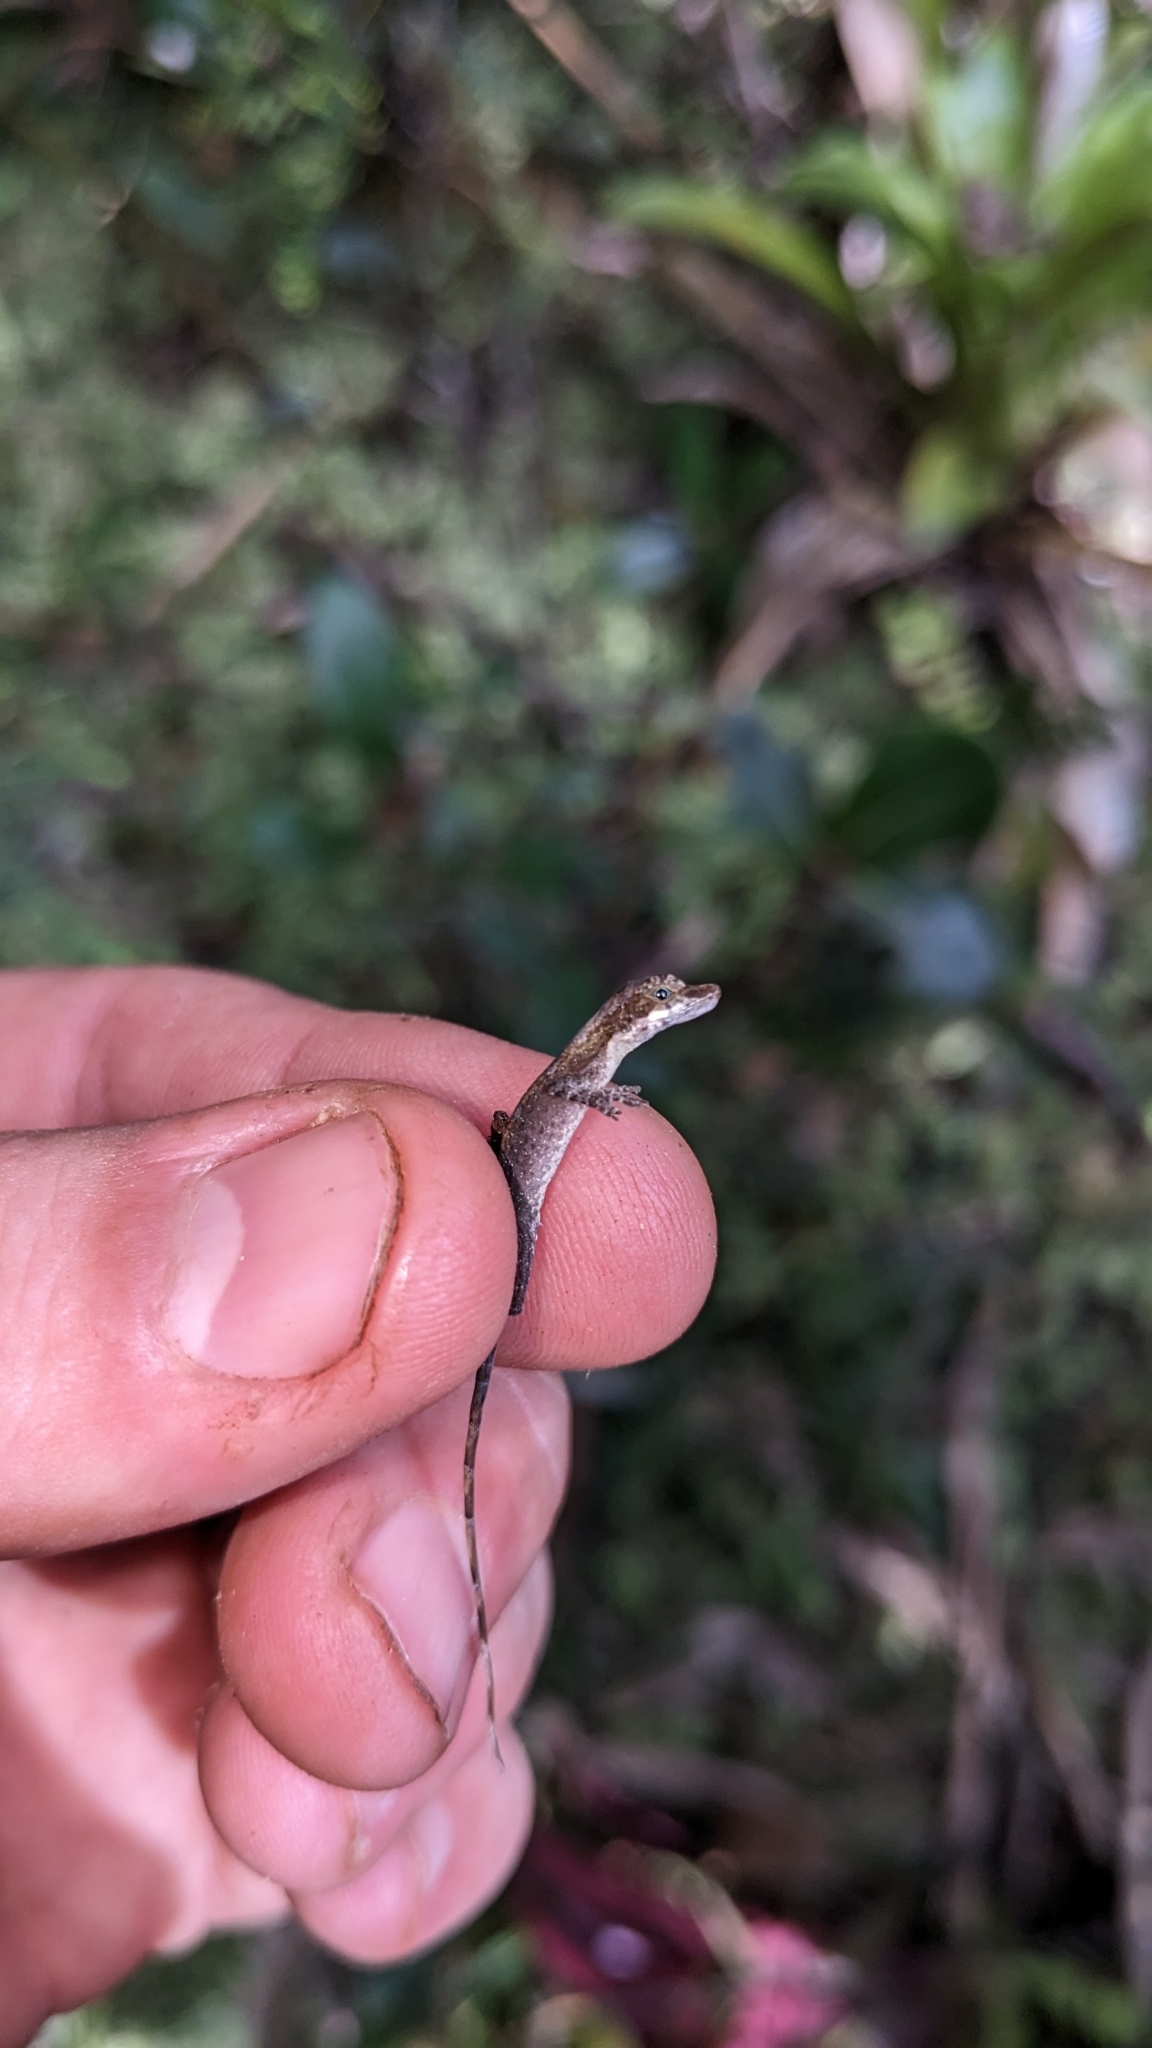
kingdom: Animalia
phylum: Chordata
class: Squamata
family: Dactyloidae
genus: Anolis
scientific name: Anolis alutaceus
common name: Monte verde anole
